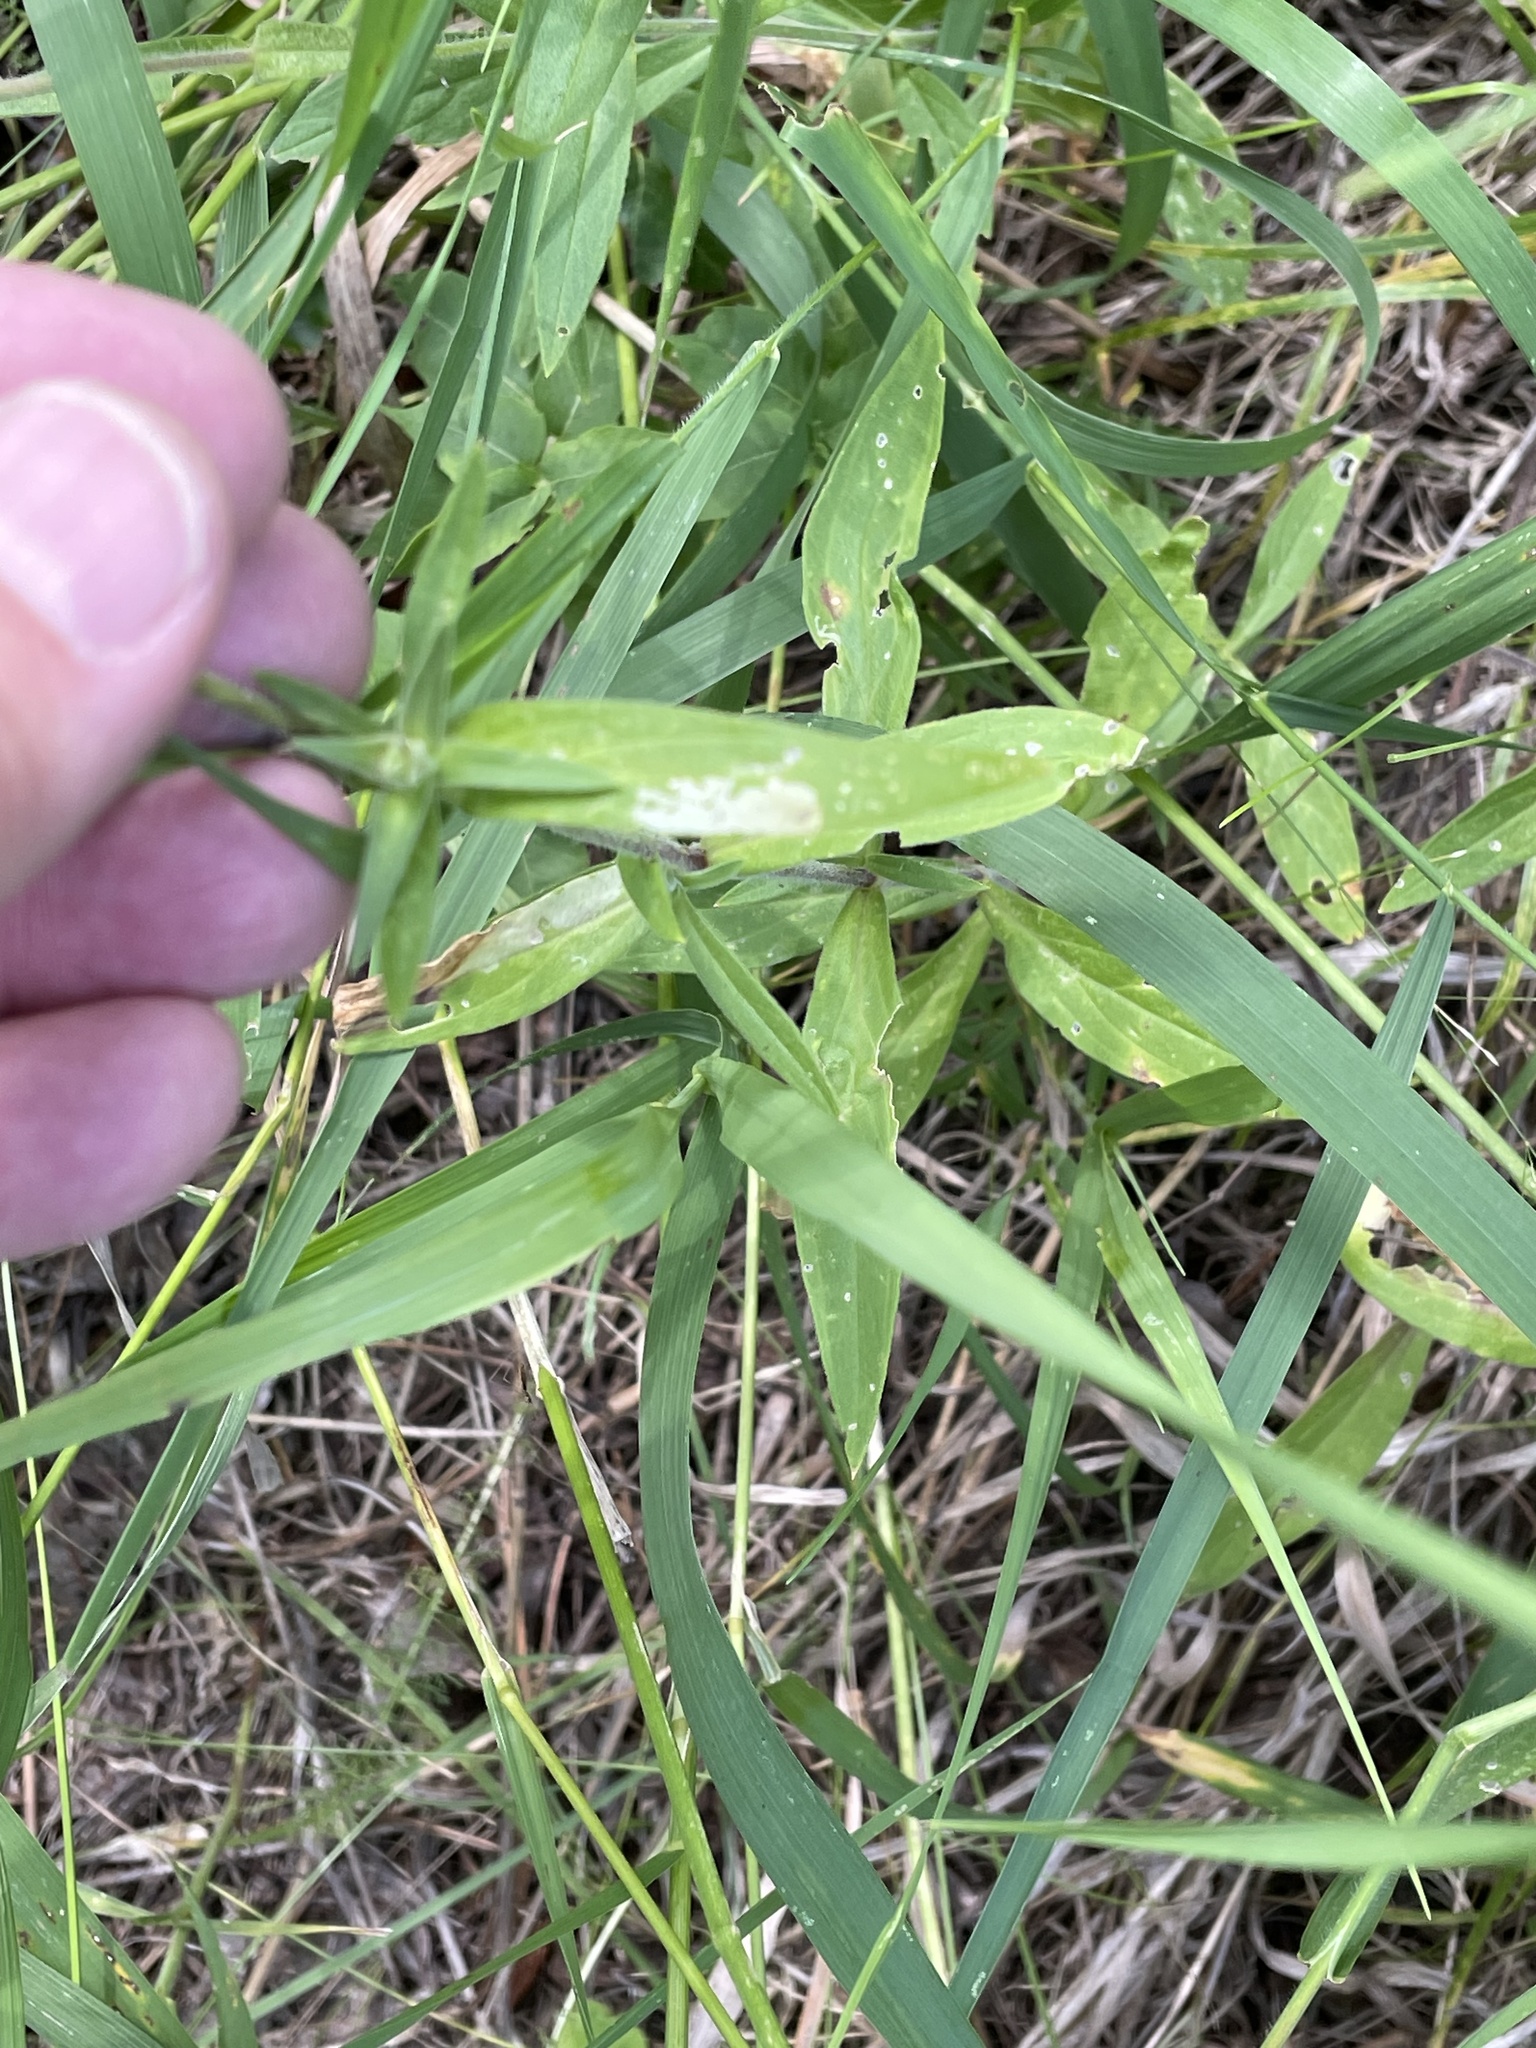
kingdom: Plantae
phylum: Tracheophyta
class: Magnoliopsida
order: Caryophyllales
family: Caryophyllaceae
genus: Silene
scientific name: Silene latifolia
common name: White campion
